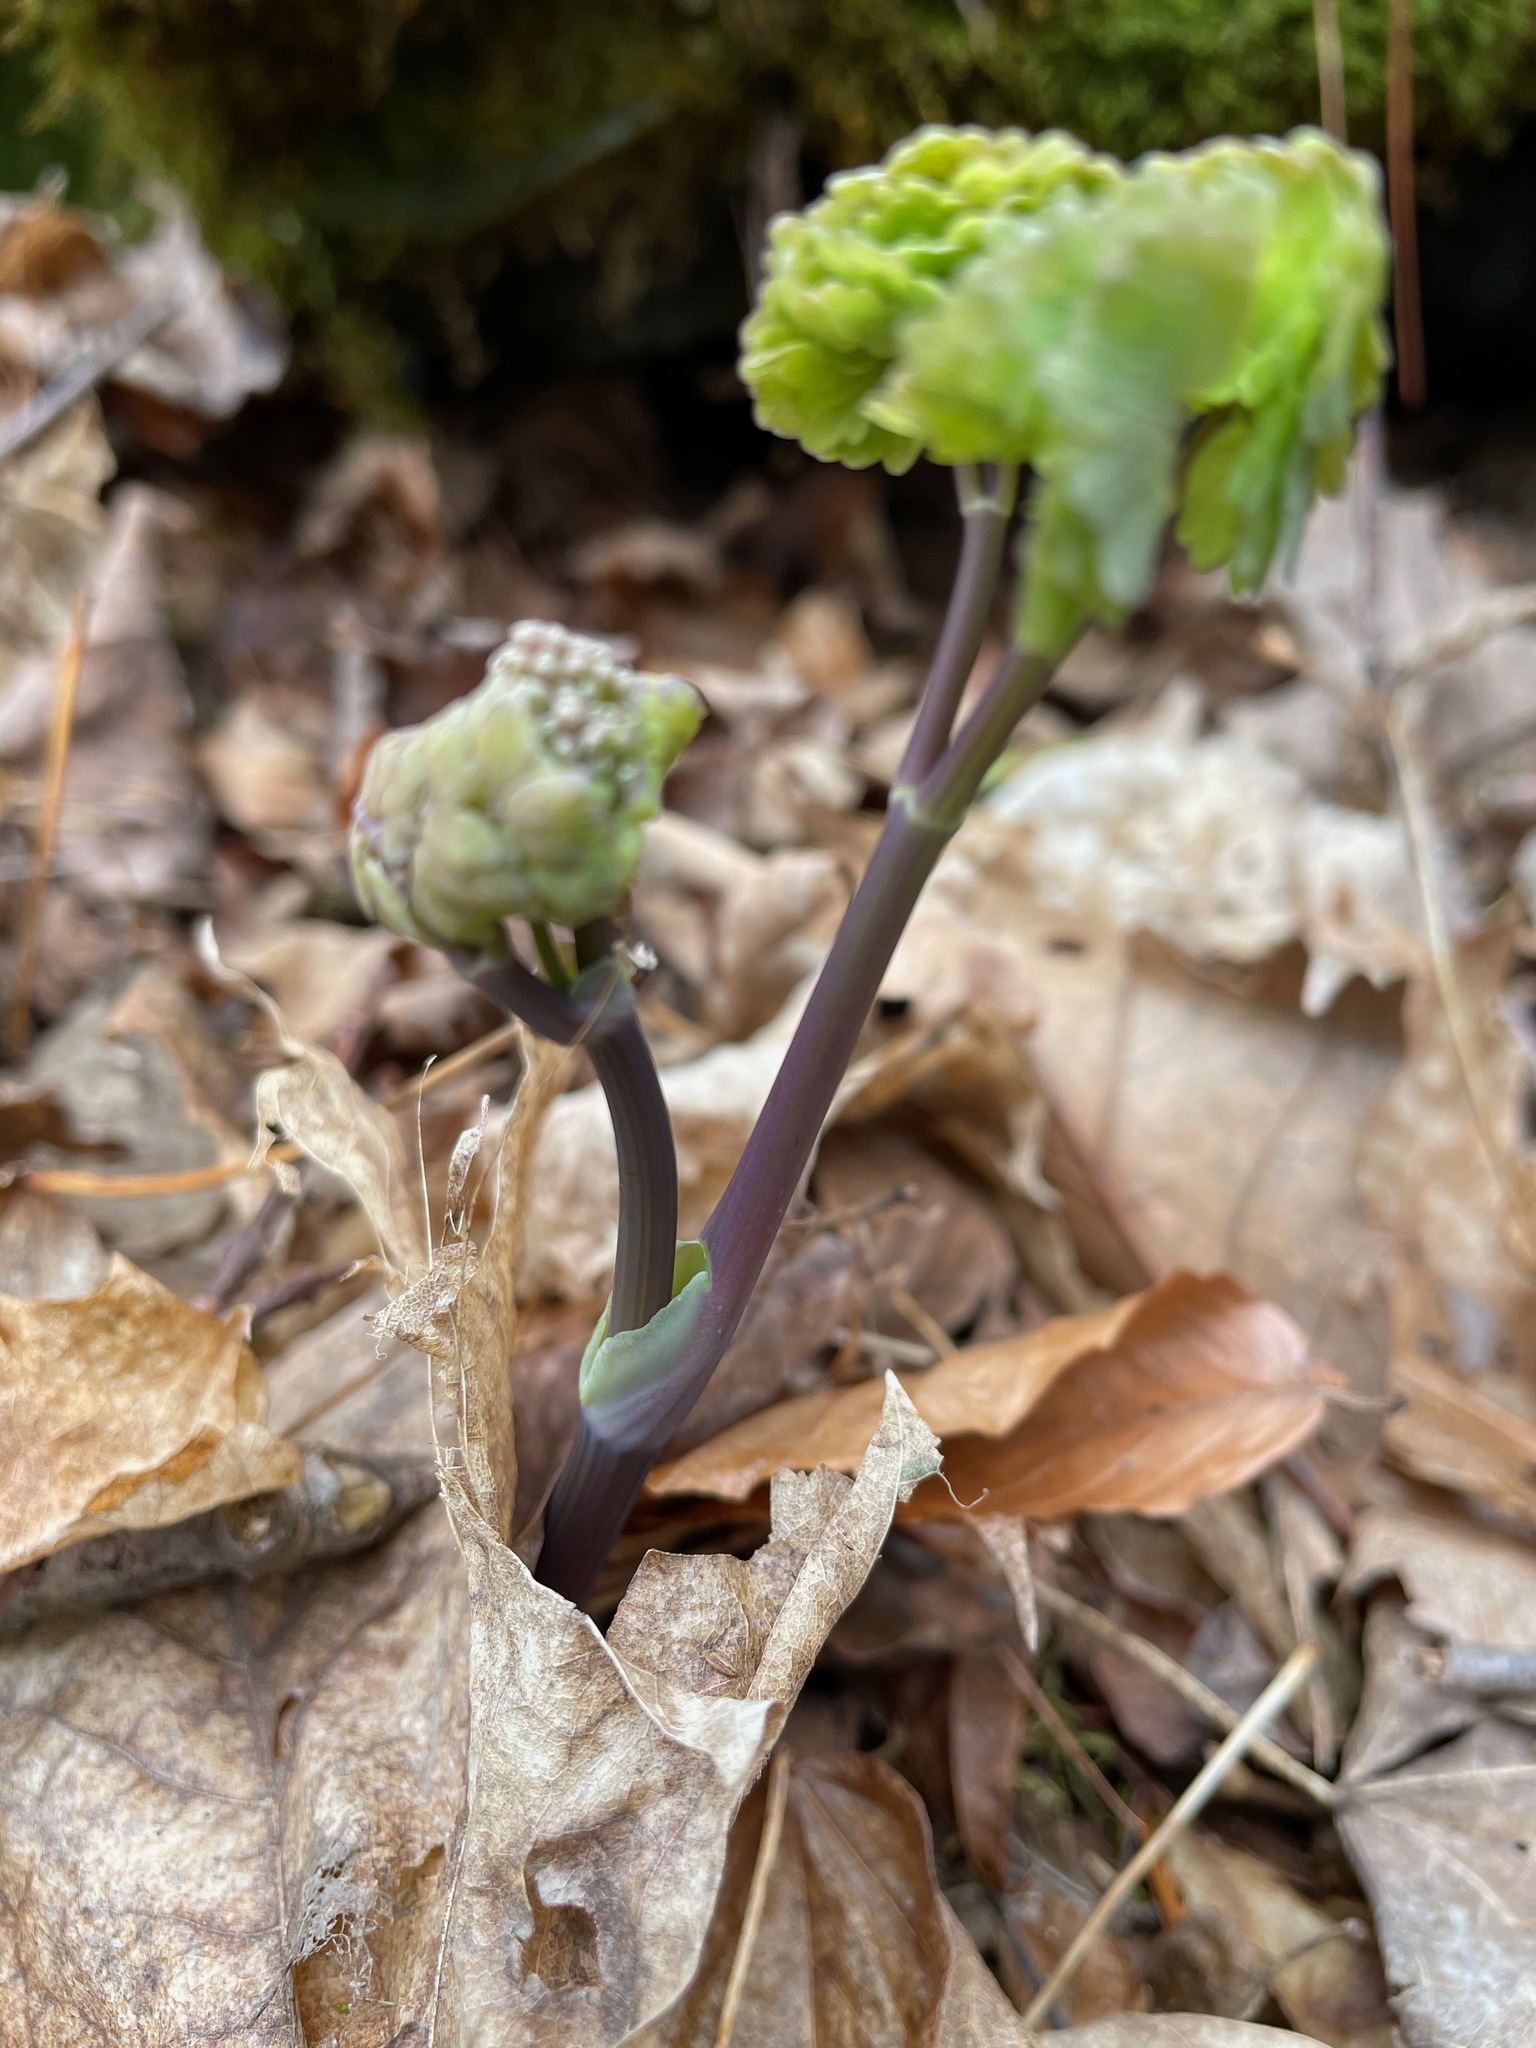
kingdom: Plantae
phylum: Tracheophyta
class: Magnoliopsida
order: Ranunculales
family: Ranunculaceae
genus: Thalictrum
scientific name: Thalictrum dioicum
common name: Early meadow-rue
